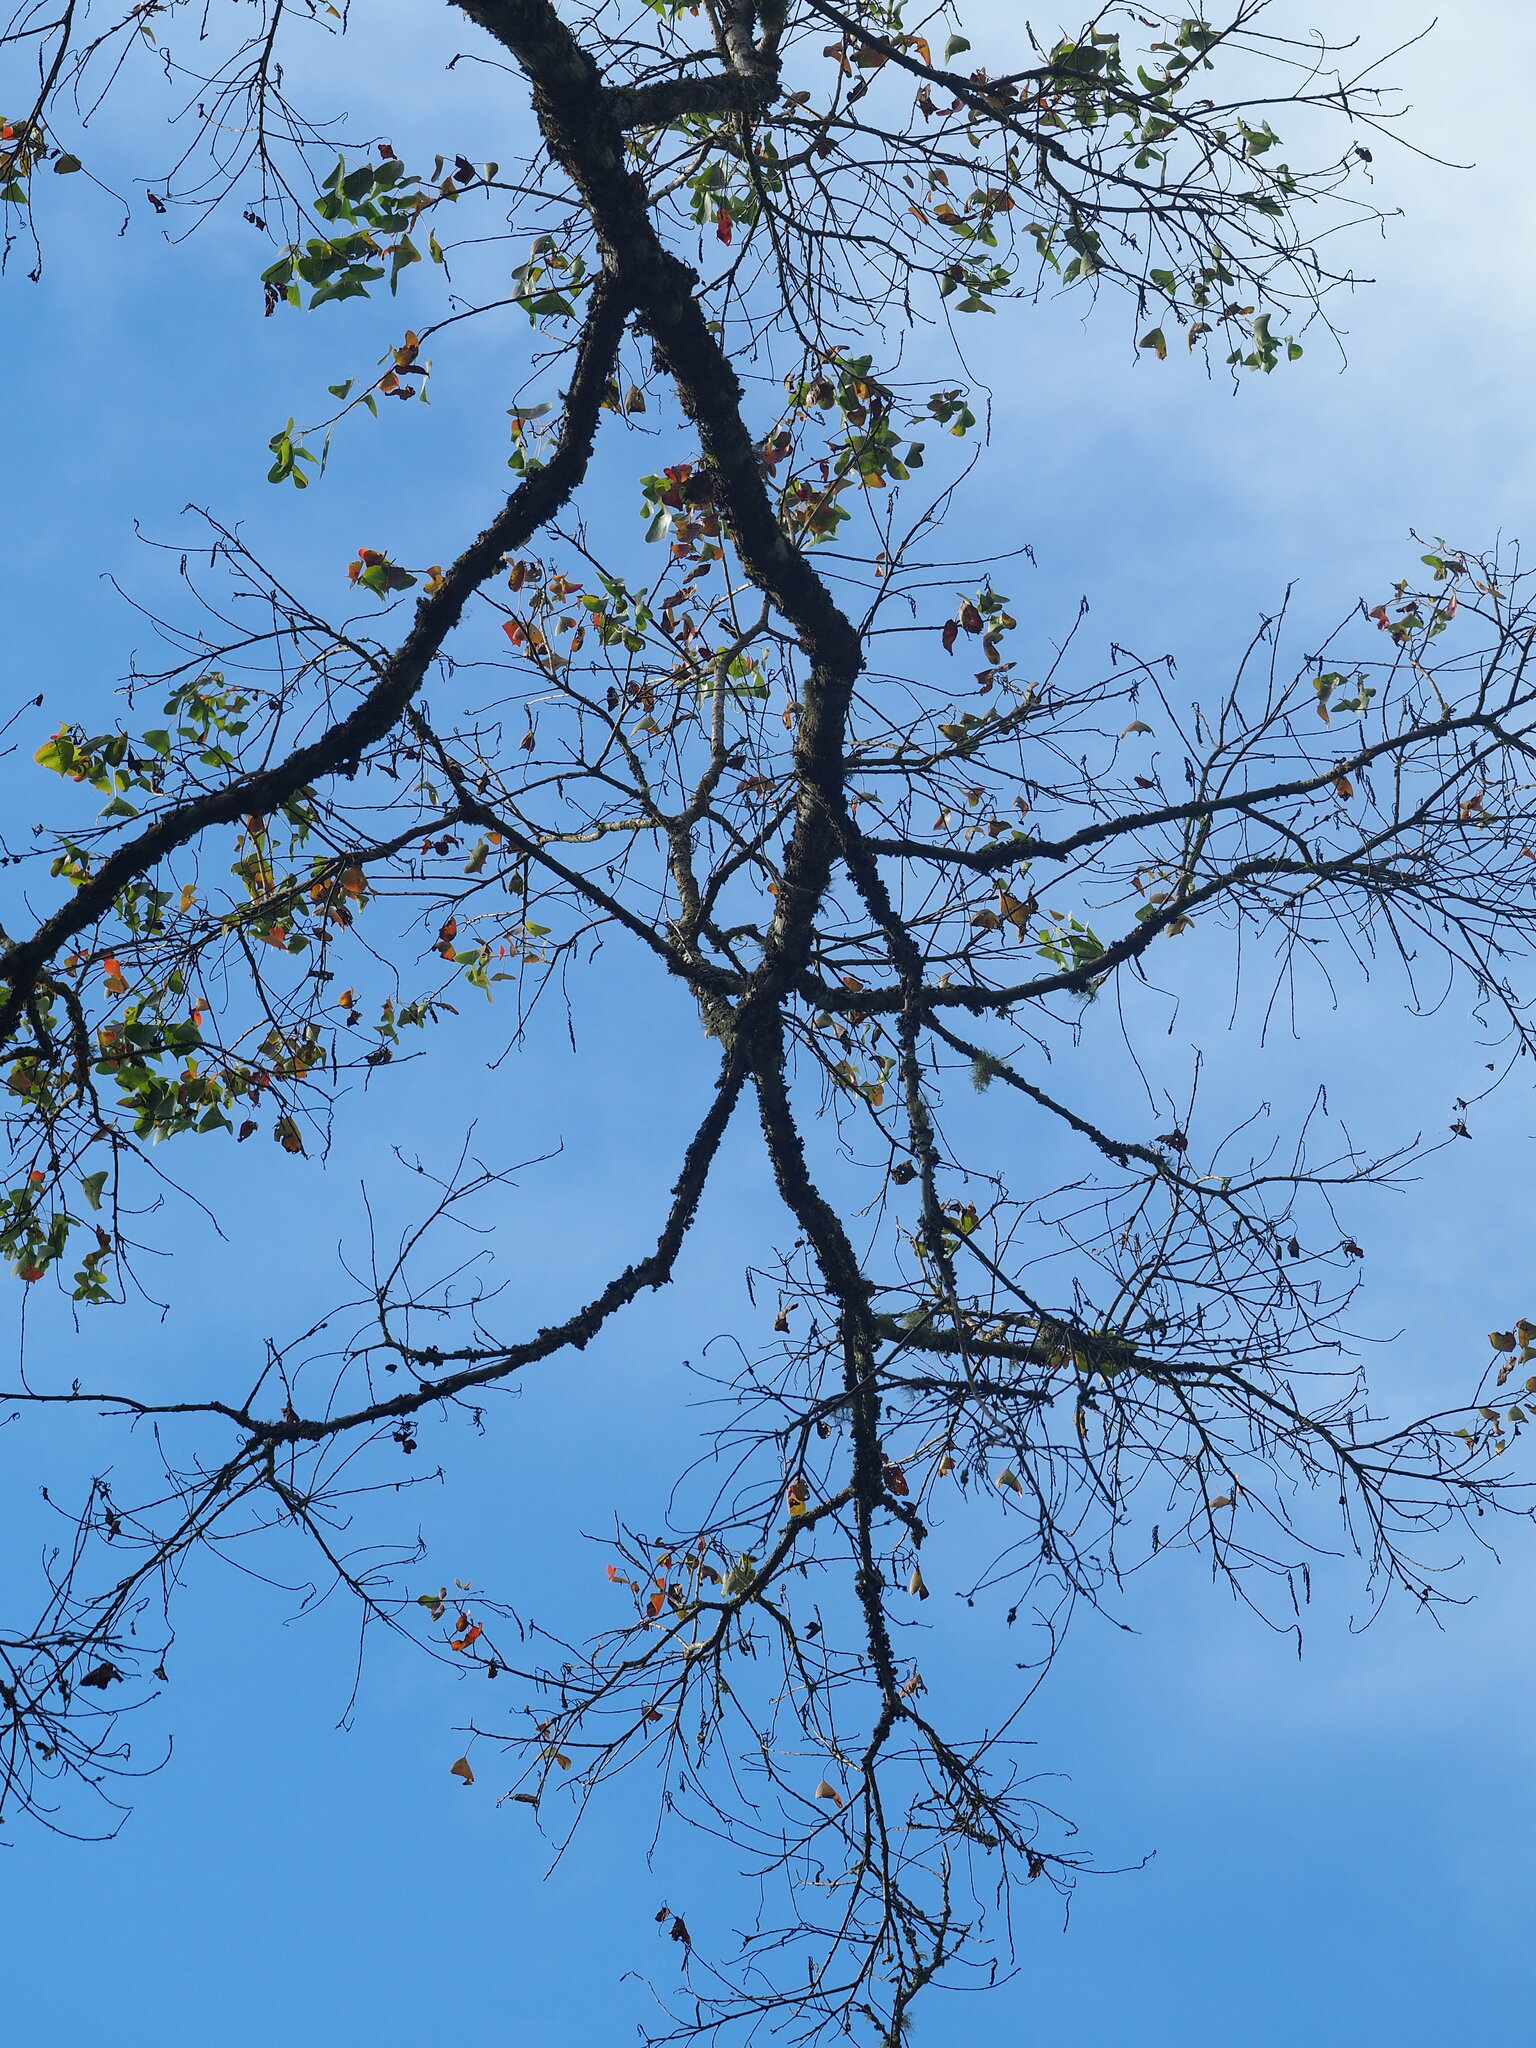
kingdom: Plantae
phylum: Tracheophyta
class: Magnoliopsida
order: Malpighiales
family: Euphorbiaceae
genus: Triadica
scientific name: Triadica sebifera
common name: Chinese tallow
